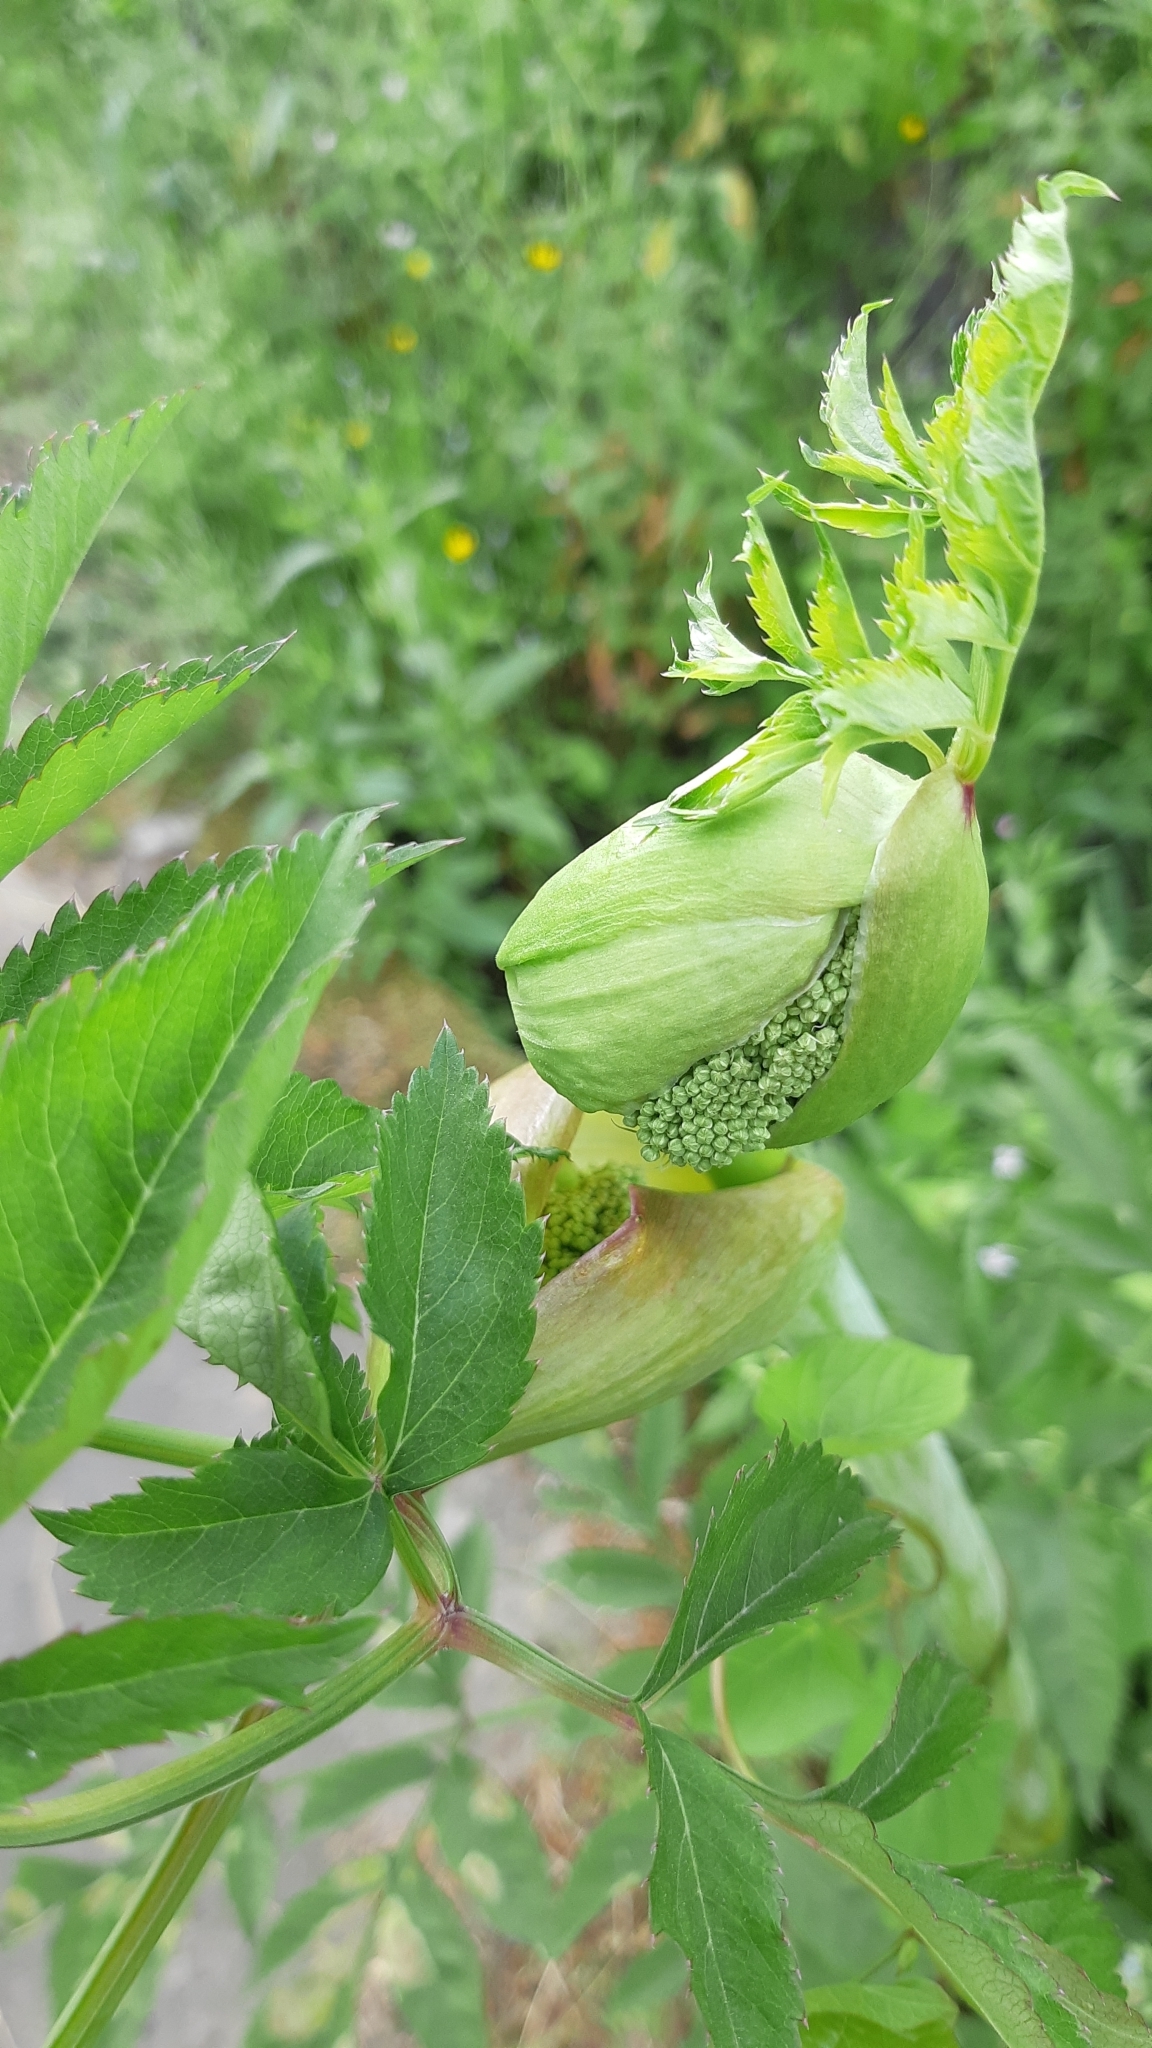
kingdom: Plantae
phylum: Tracheophyta
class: Magnoliopsida
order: Apiales
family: Apiaceae
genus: Angelica
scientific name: Angelica sylvestris
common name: Wild angelica
